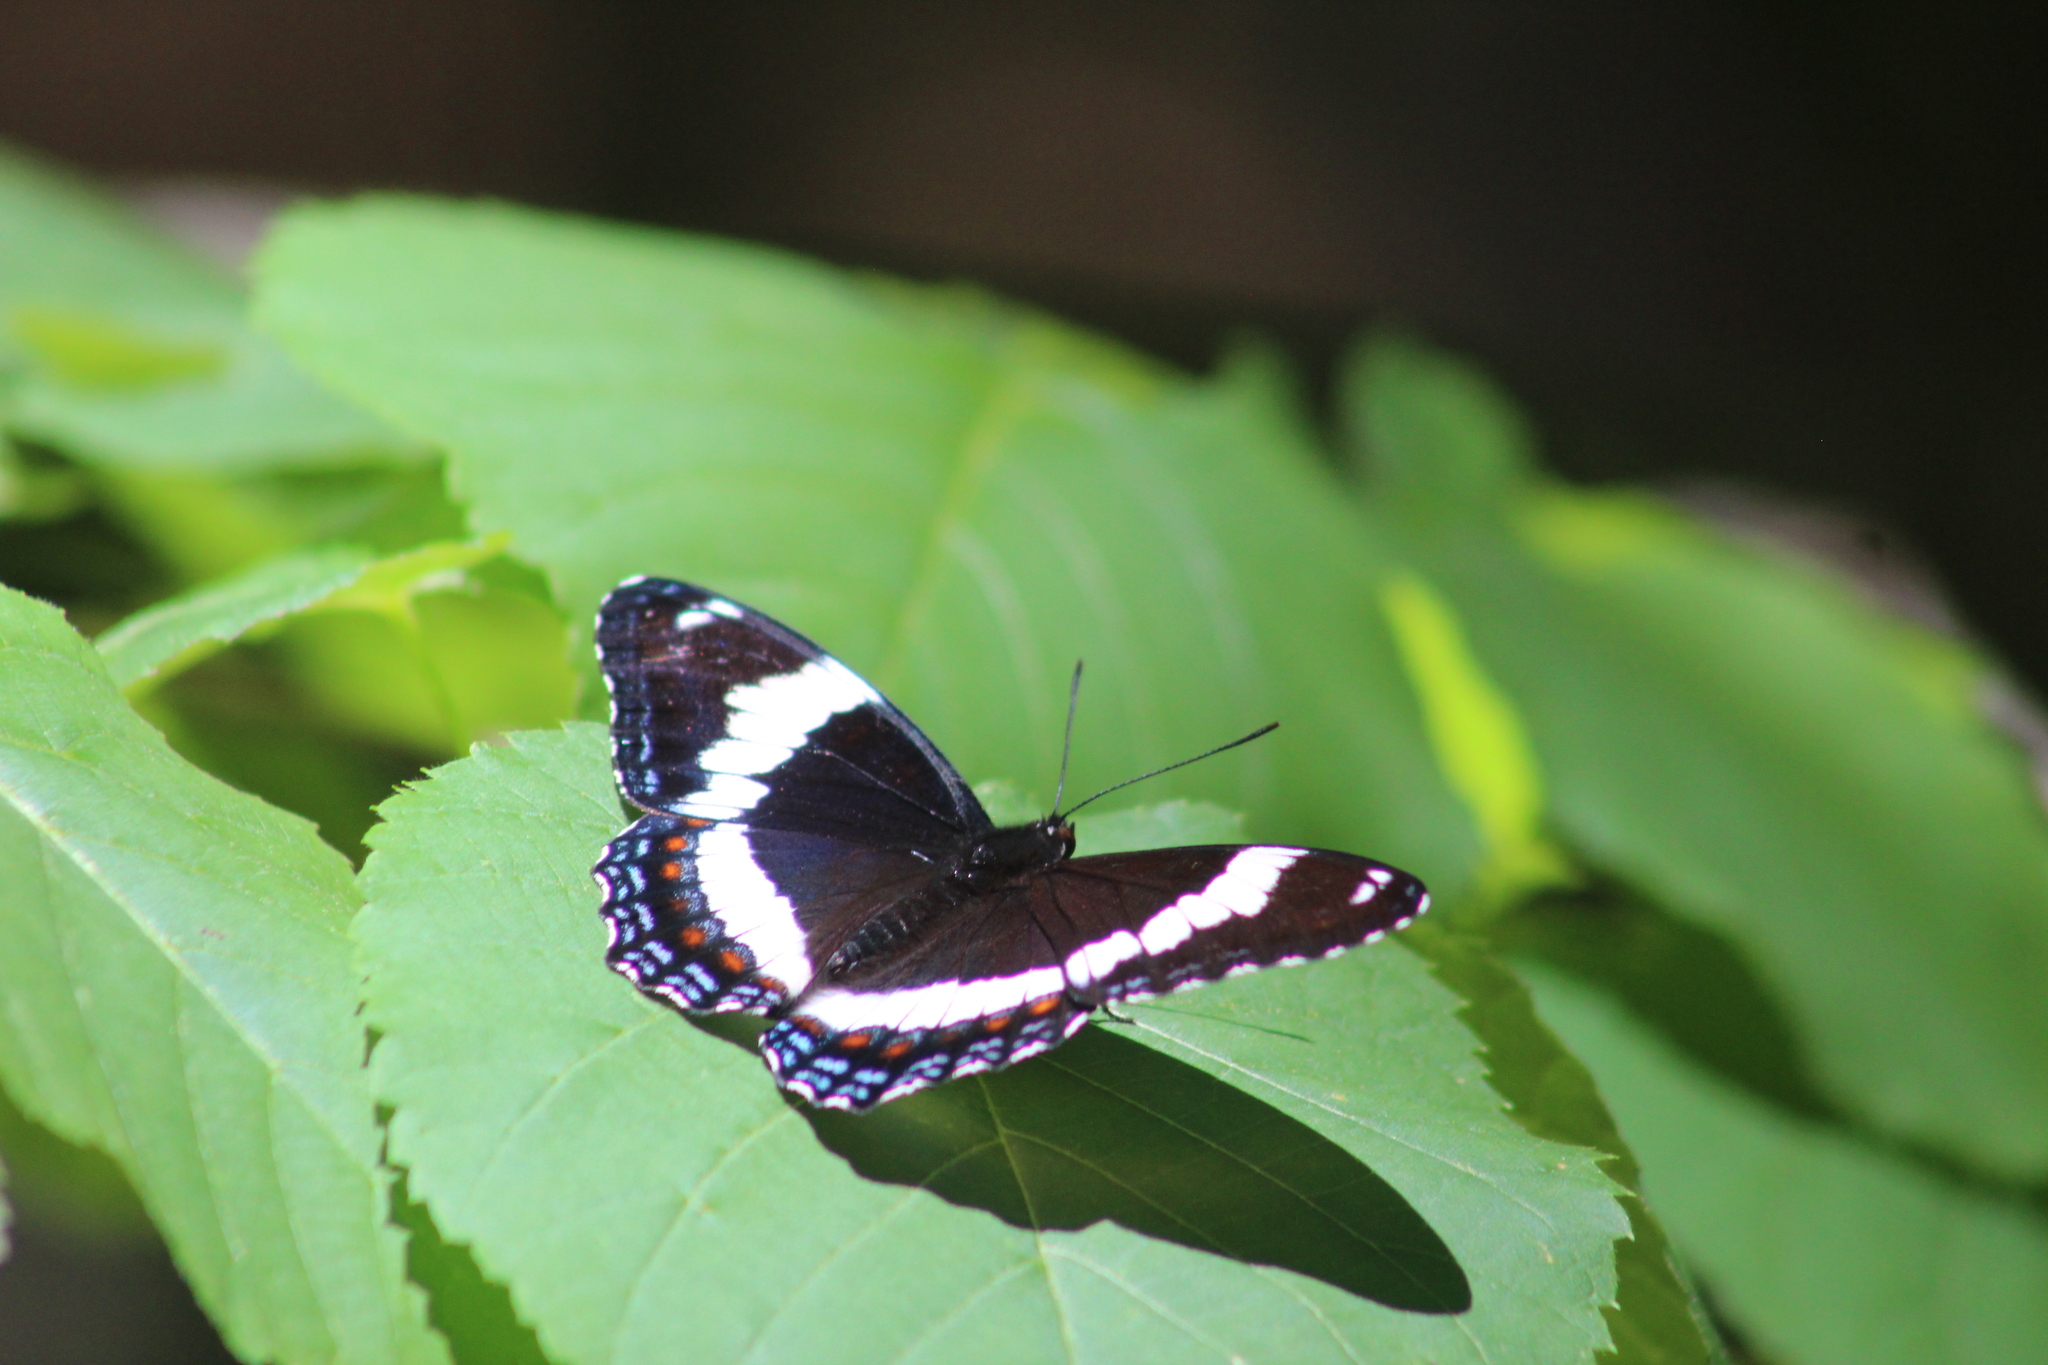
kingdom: Animalia
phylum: Arthropoda
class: Insecta
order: Lepidoptera
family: Nymphalidae
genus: Limenitis
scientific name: Limenitis arthemis
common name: Red-spotted admiral
